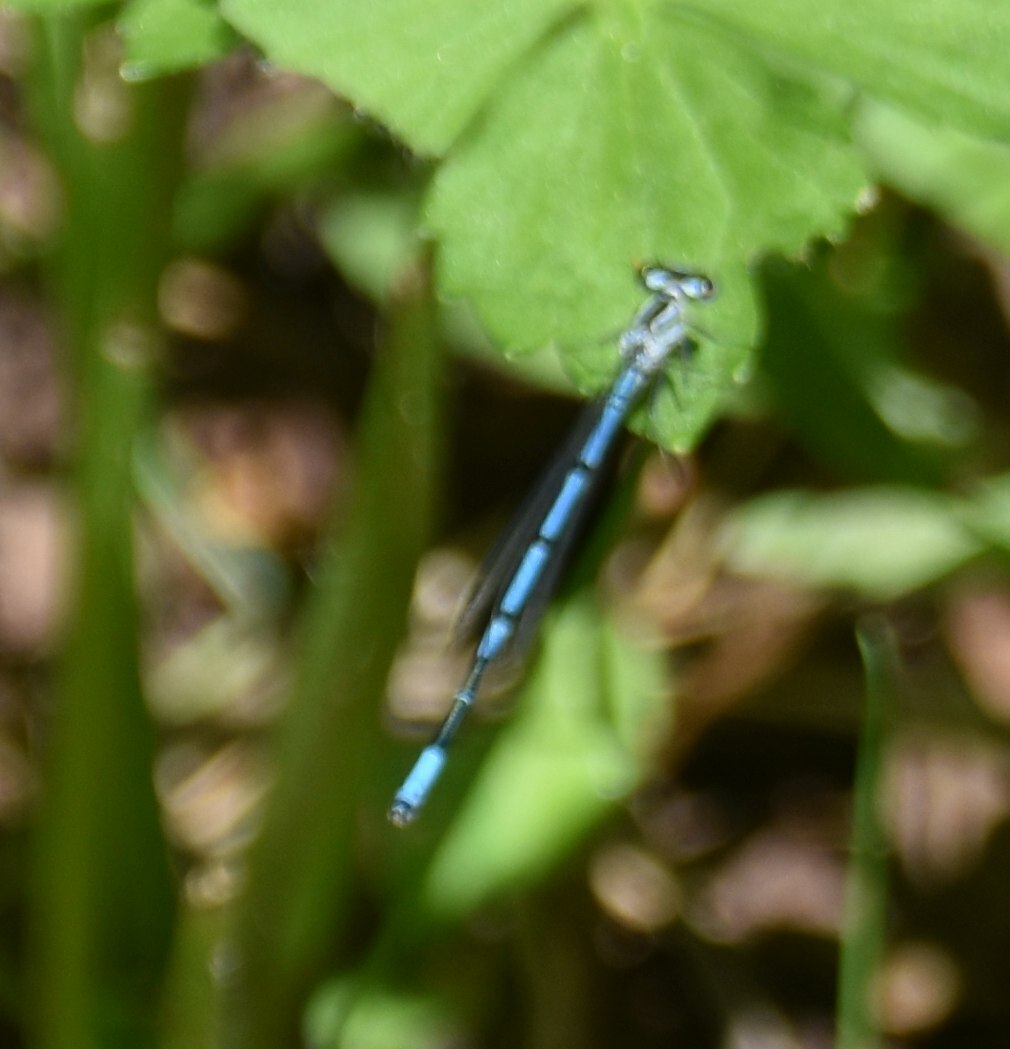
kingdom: Animalia
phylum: Arthropoda
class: Insecta
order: Odonata
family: Coenagrionidae
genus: Coenagrion
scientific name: Coenagrion puella
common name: Azure damselfly
